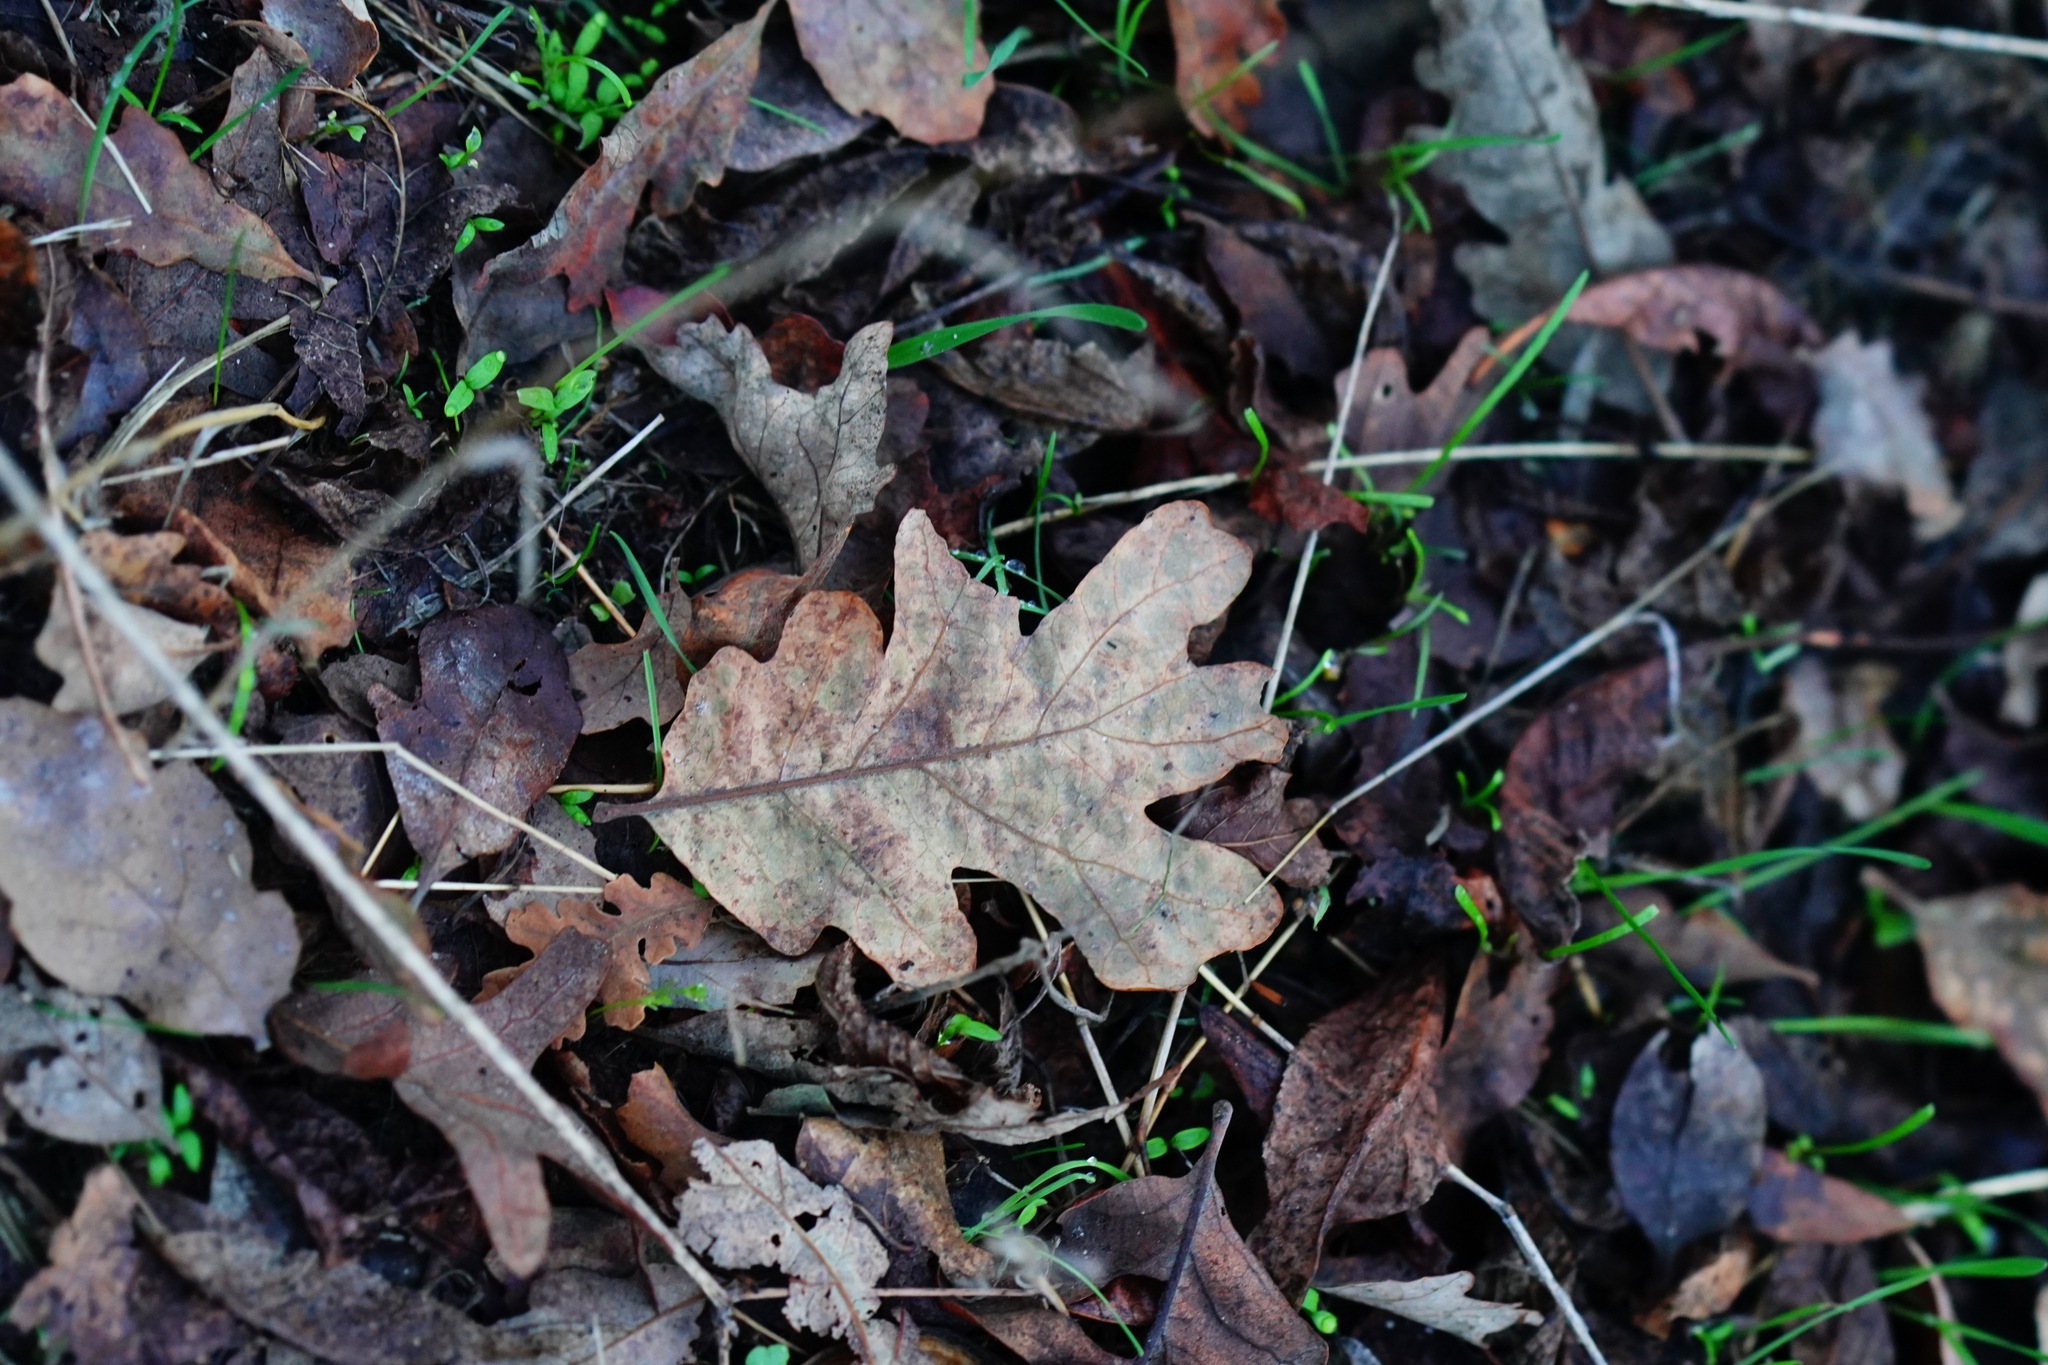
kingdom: Plantae
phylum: Tracheophyta
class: Magnoliopsida
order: Fagales
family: Fagaceae
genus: Quercus
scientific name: Quercus garryana
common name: Garry oak
